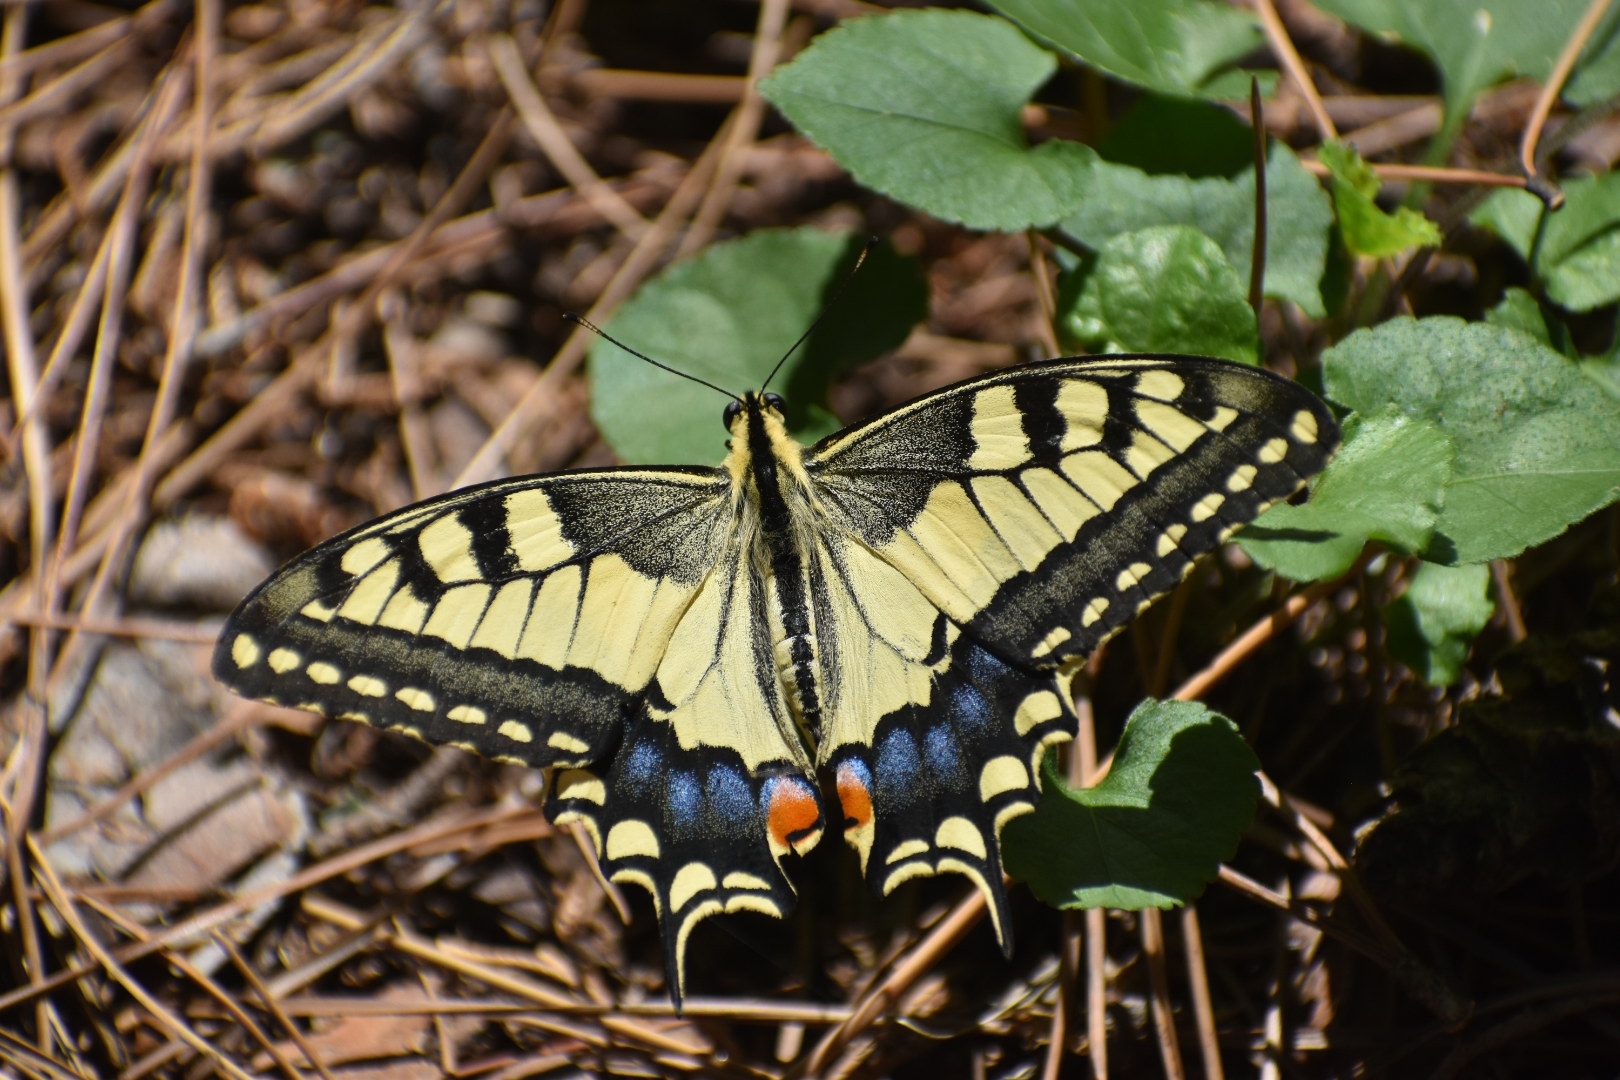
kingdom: Animalia
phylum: Arthropoda
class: Insecta
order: Lepidoptera
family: Papilionidae
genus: Papilio
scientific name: Papilio machaon
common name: Swallowtail
